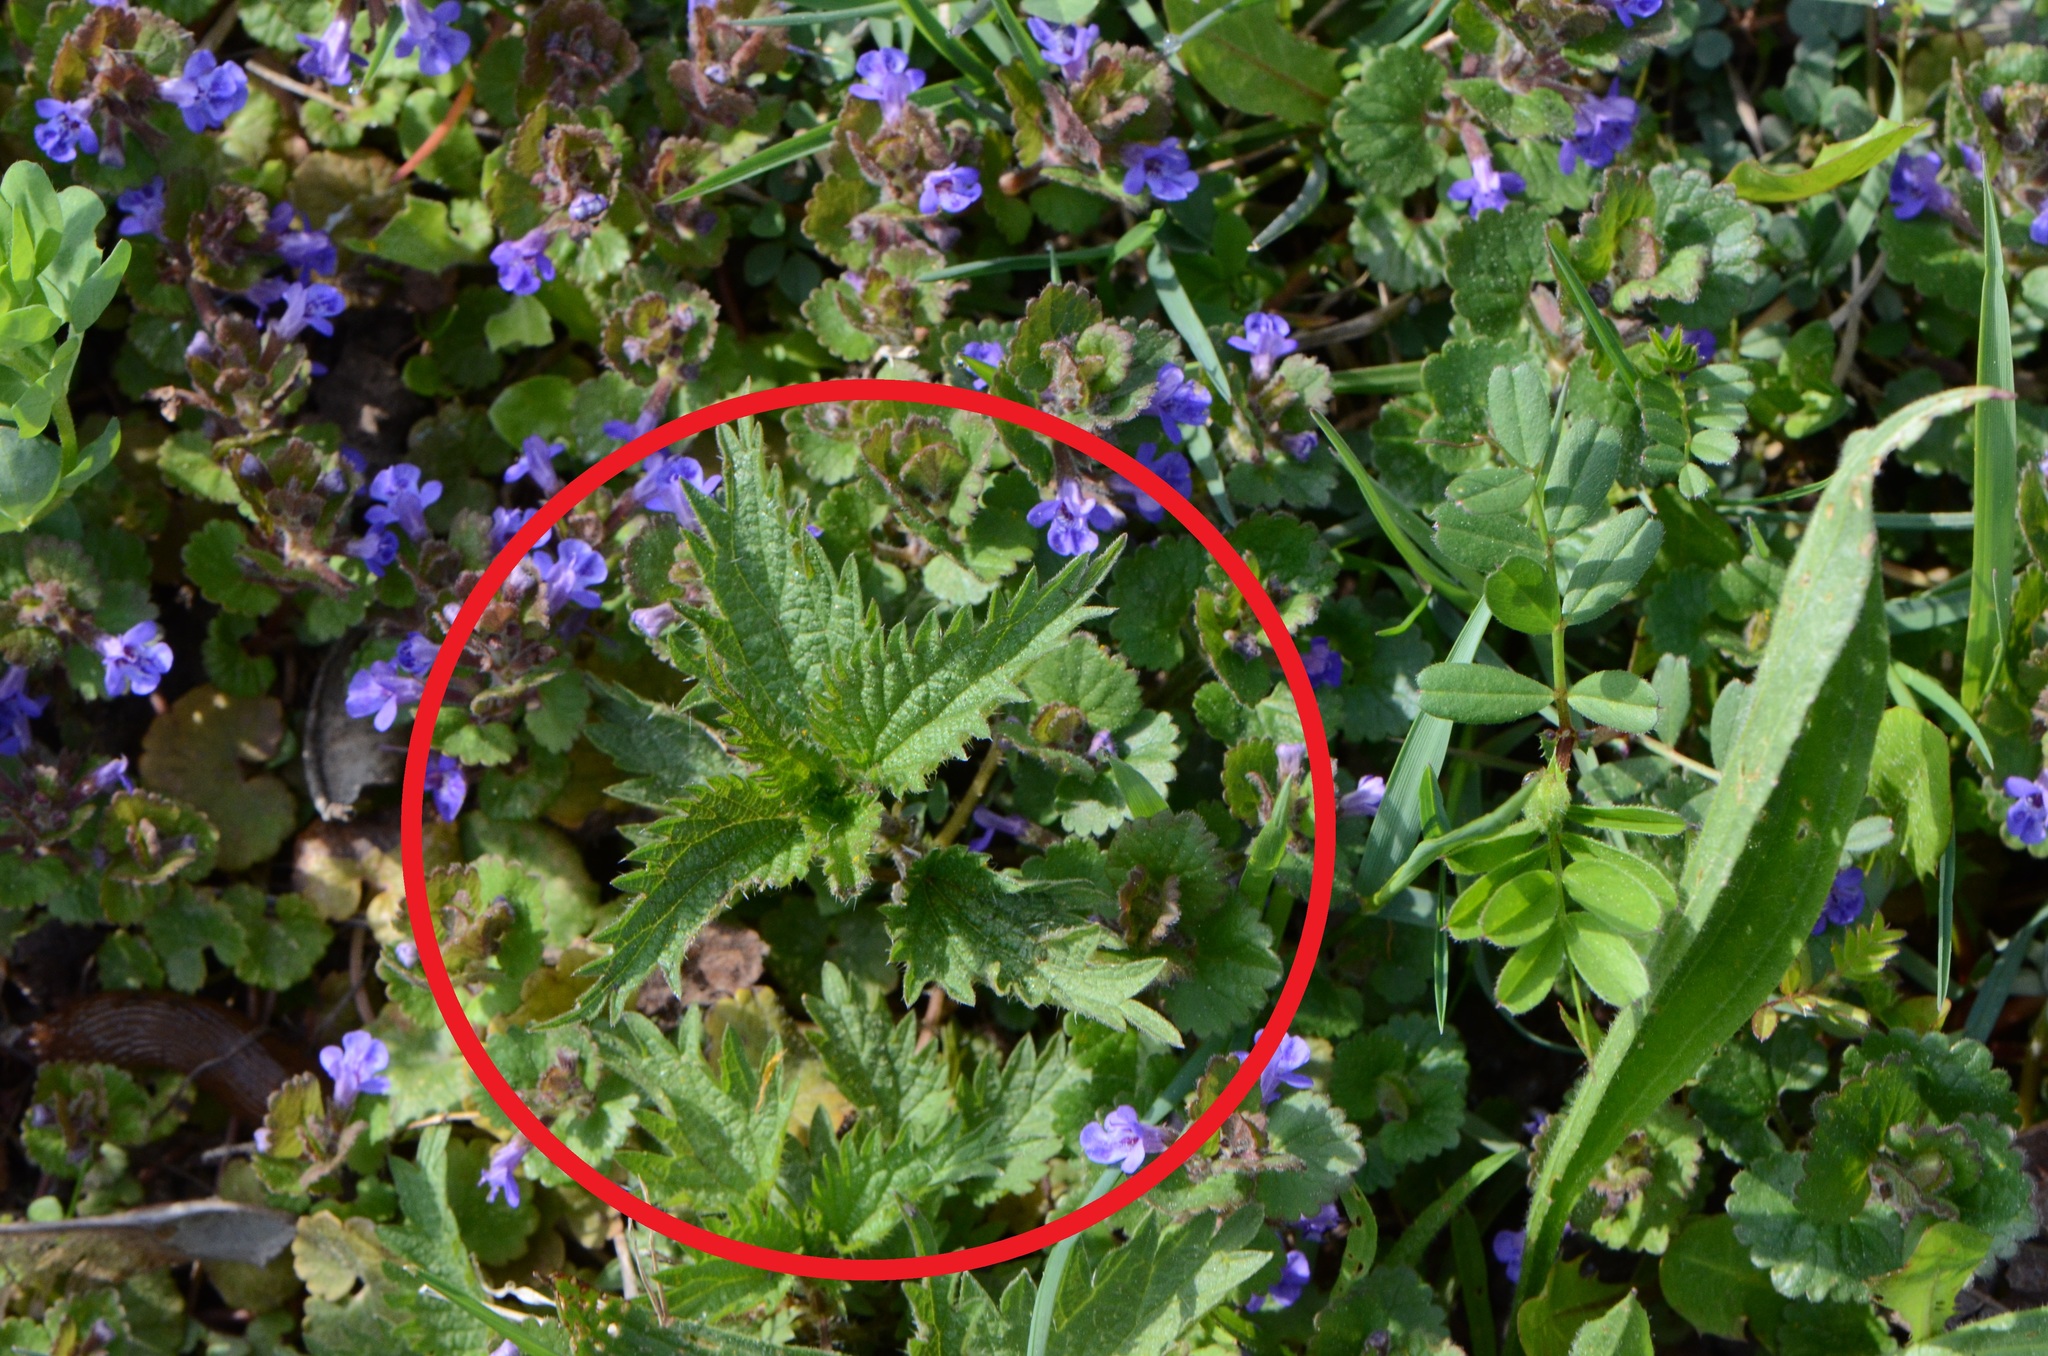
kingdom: Plantae
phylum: Tracheophyta
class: Magnoliopsida
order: Rosales
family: Urticaceae
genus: Urtica
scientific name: Urtica dioica
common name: Common nettle
